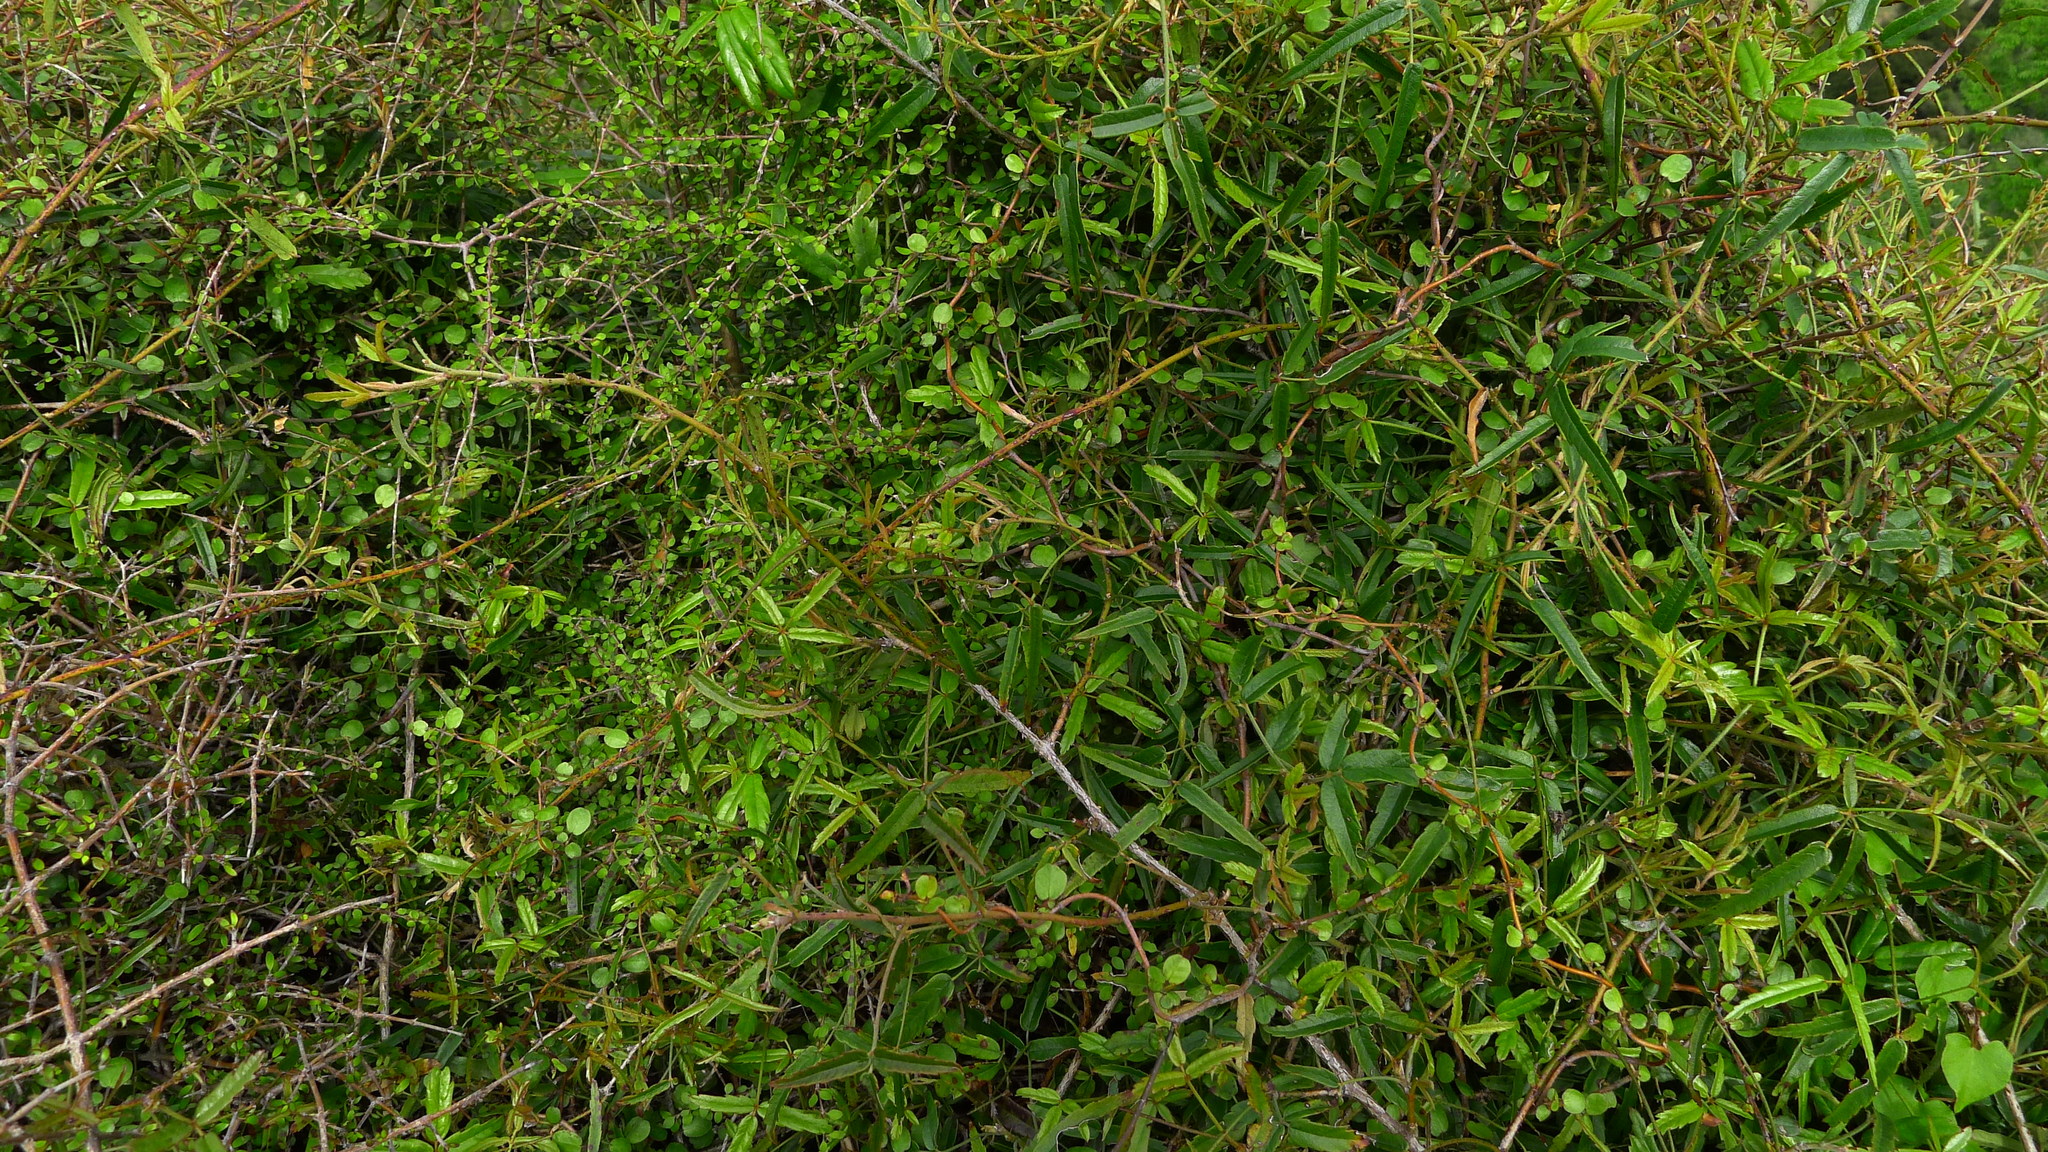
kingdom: Plantae
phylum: Tracheophyta
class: Magnoliopsida
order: Rosales
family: Rosaceae
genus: Rubus
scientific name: Rubus schmidelioides
